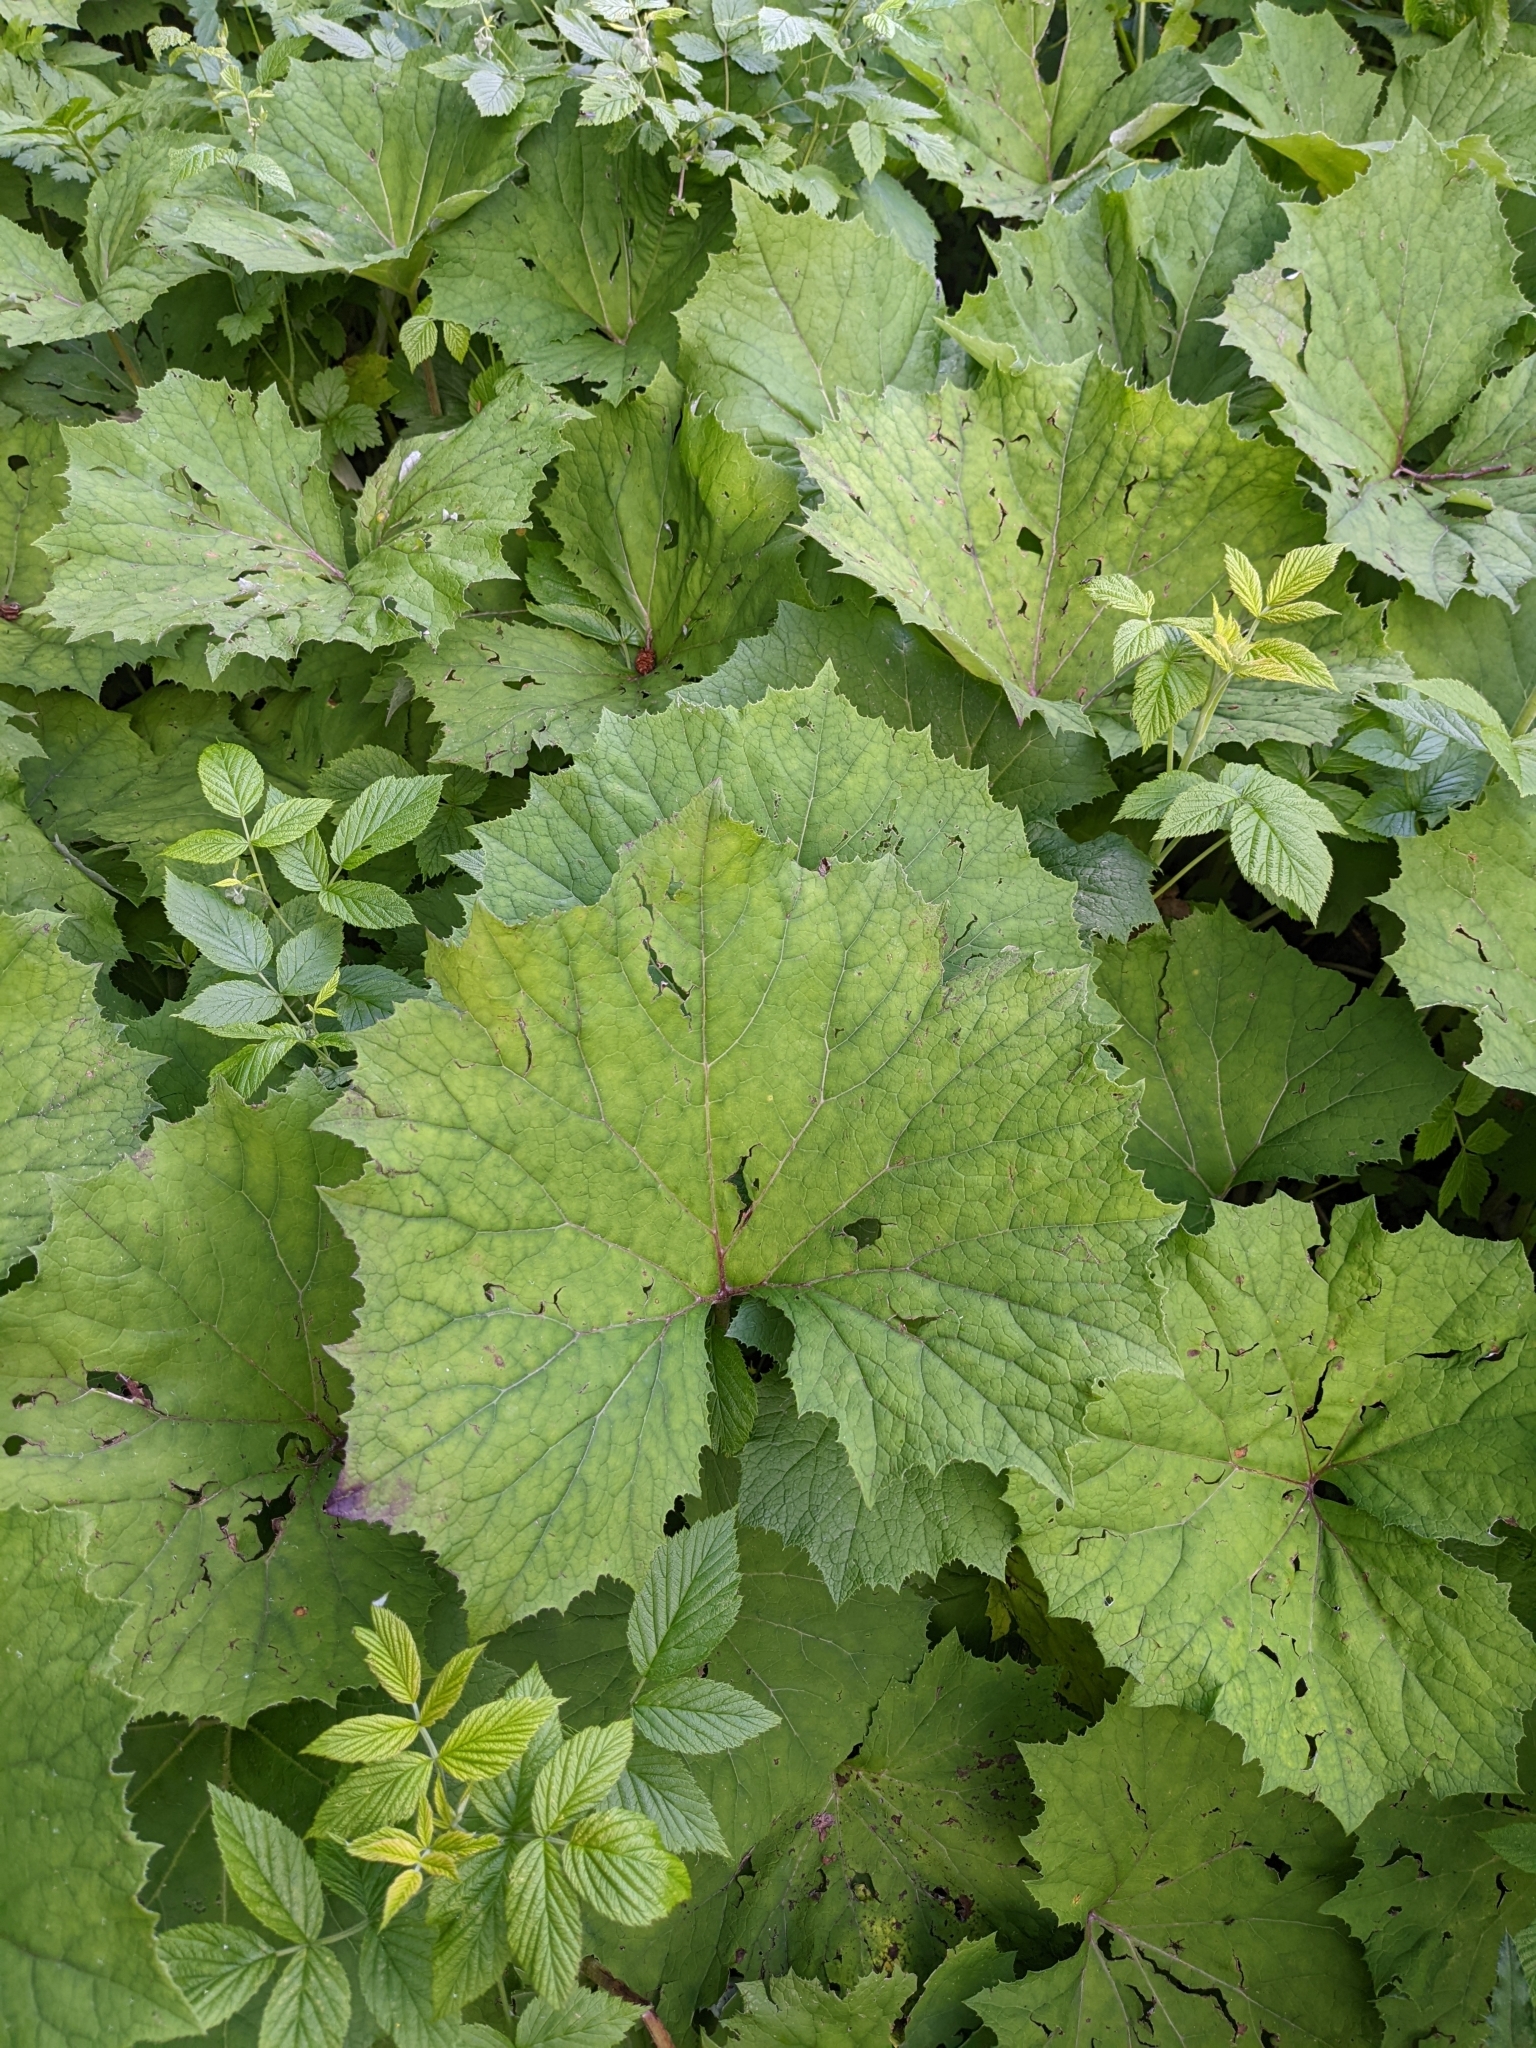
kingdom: Plantae
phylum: Tracheophyta
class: Magnoliopsida
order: Asterales
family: Asteraceae
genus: Petasites
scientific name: Petasites albus
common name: White butterbur
